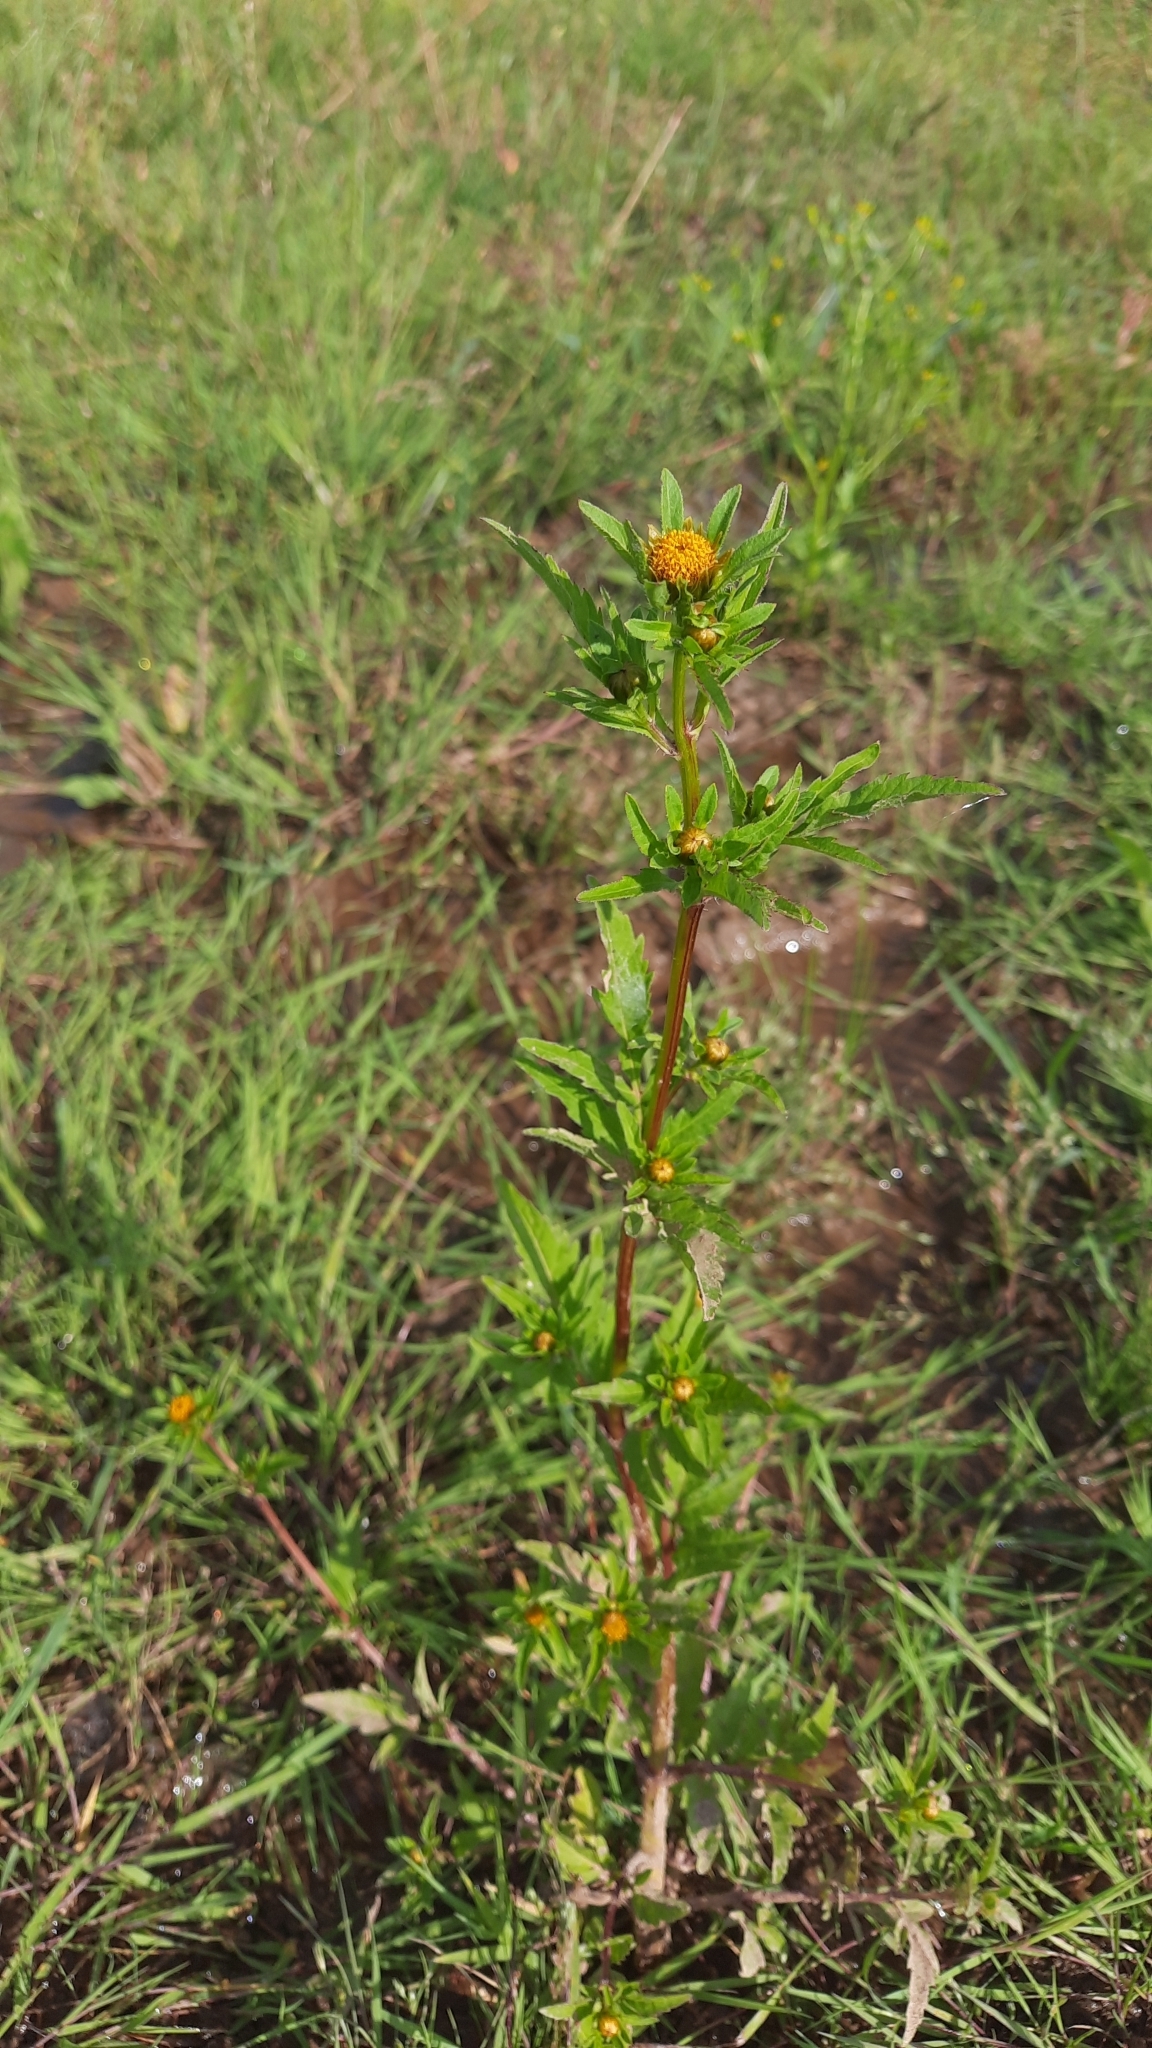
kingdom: Plantae
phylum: Tracheophyta
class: Magnoliopsida
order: Asterales
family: Asteraceae
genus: Bidens
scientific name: Bidens tripartita
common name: Trifid bur-marigold
